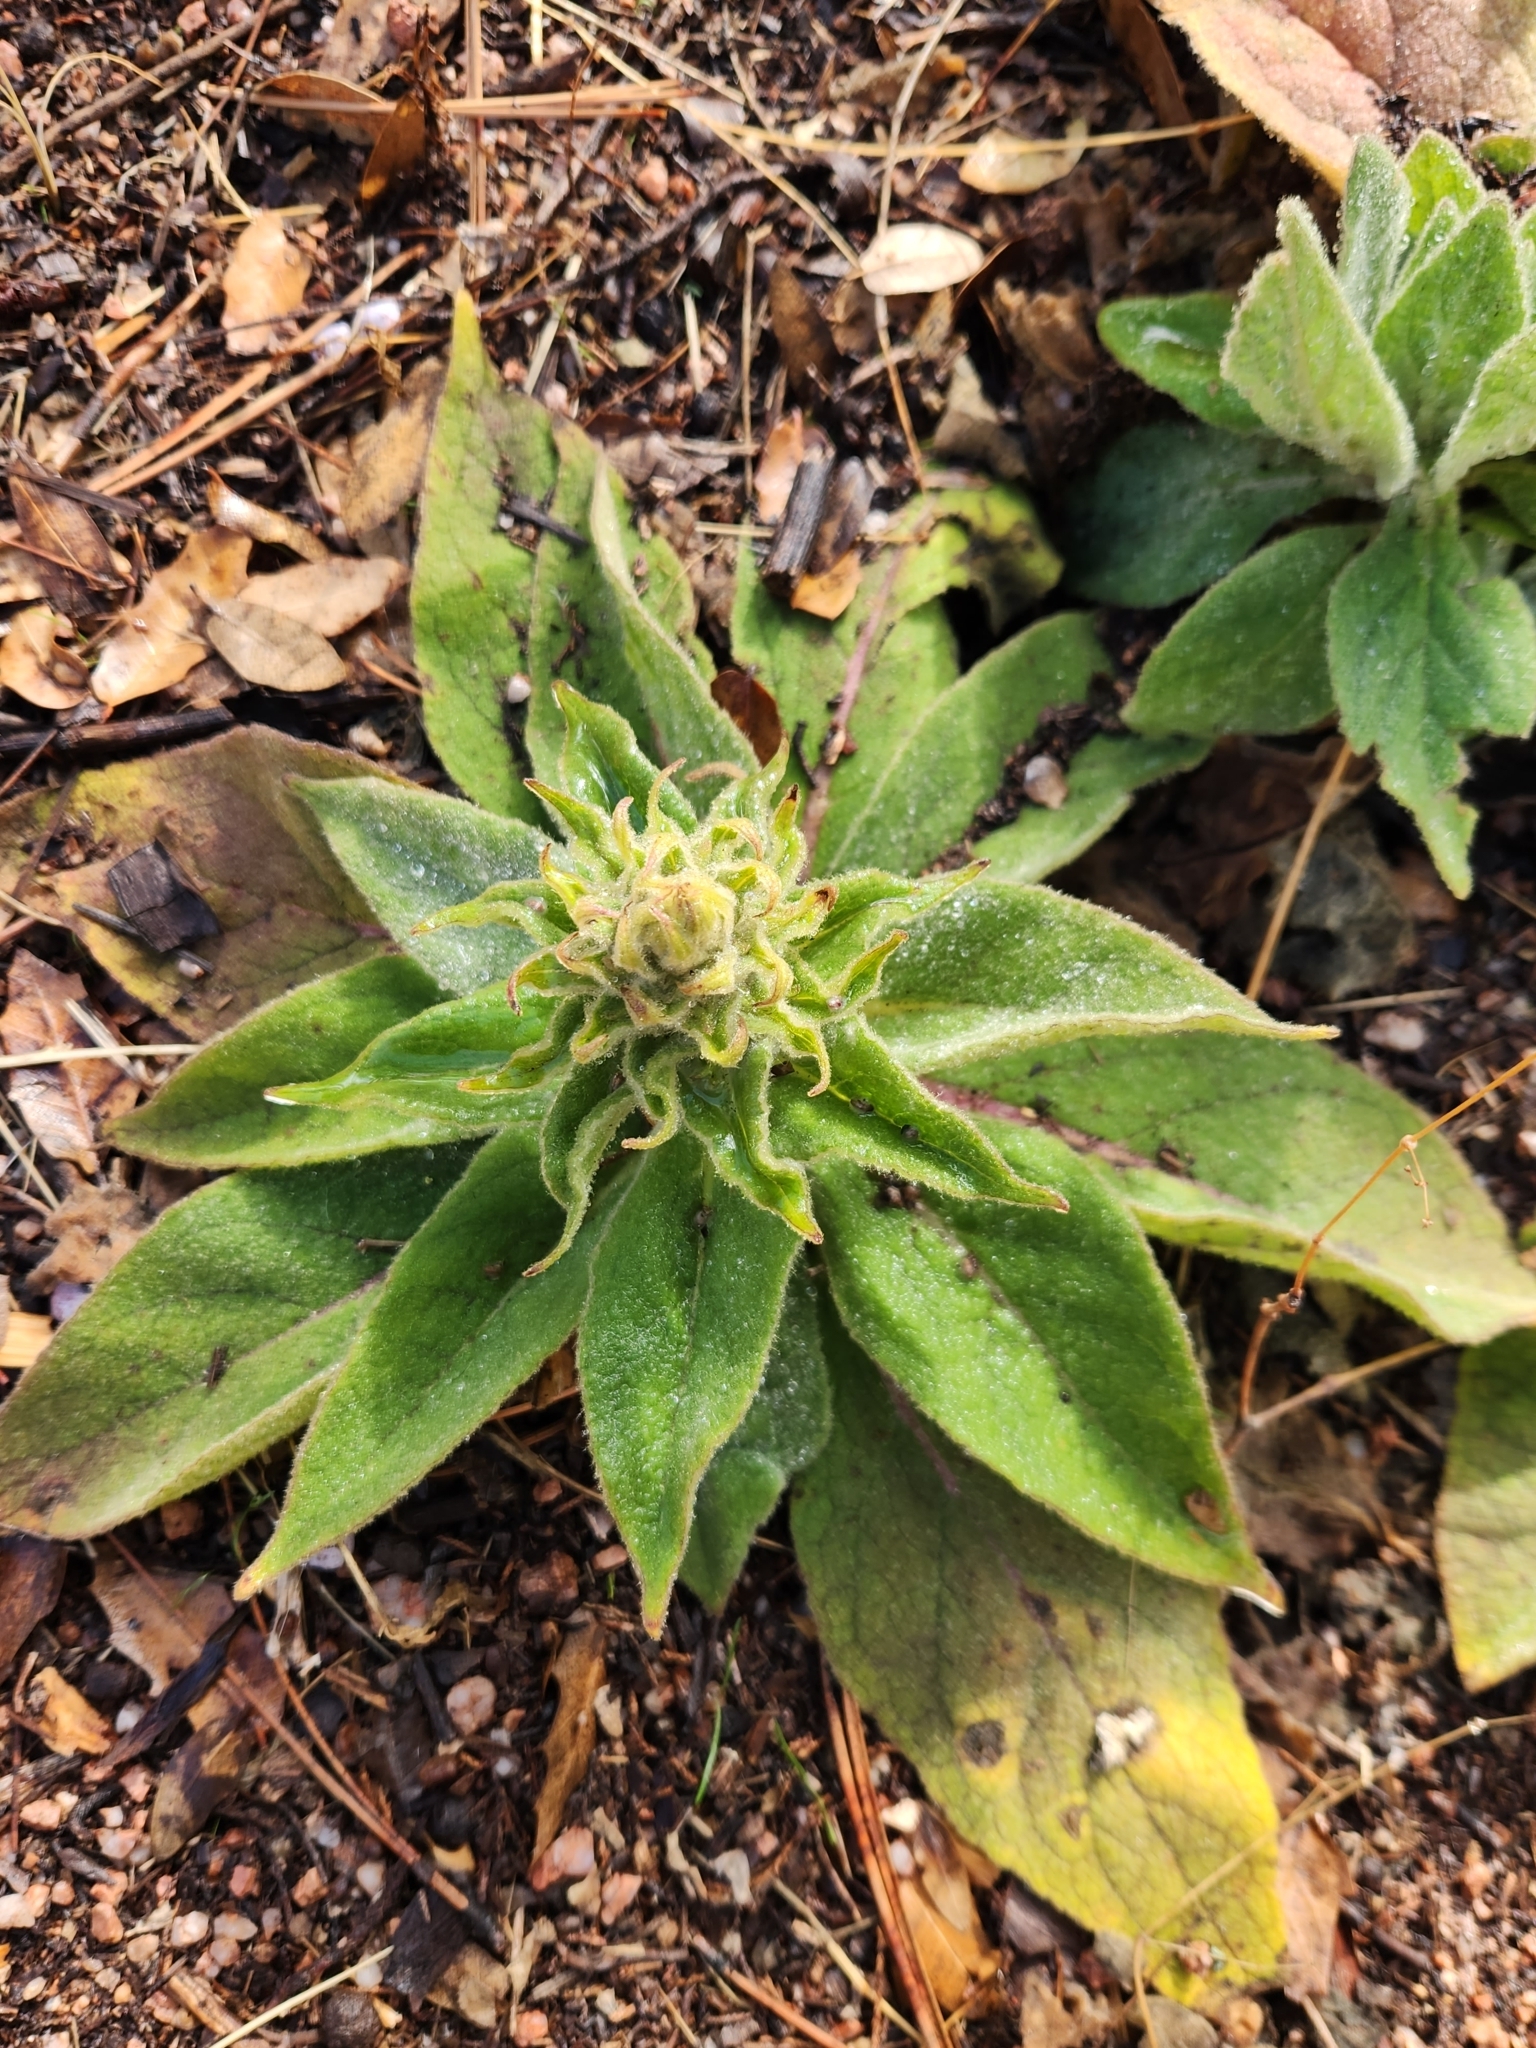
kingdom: Plantae
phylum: Tracheophyta
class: Magnoliopsida
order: Lamiales
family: Scrophulariaceae
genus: Verbascum
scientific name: Verbascum thapsus
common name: Common mullein
